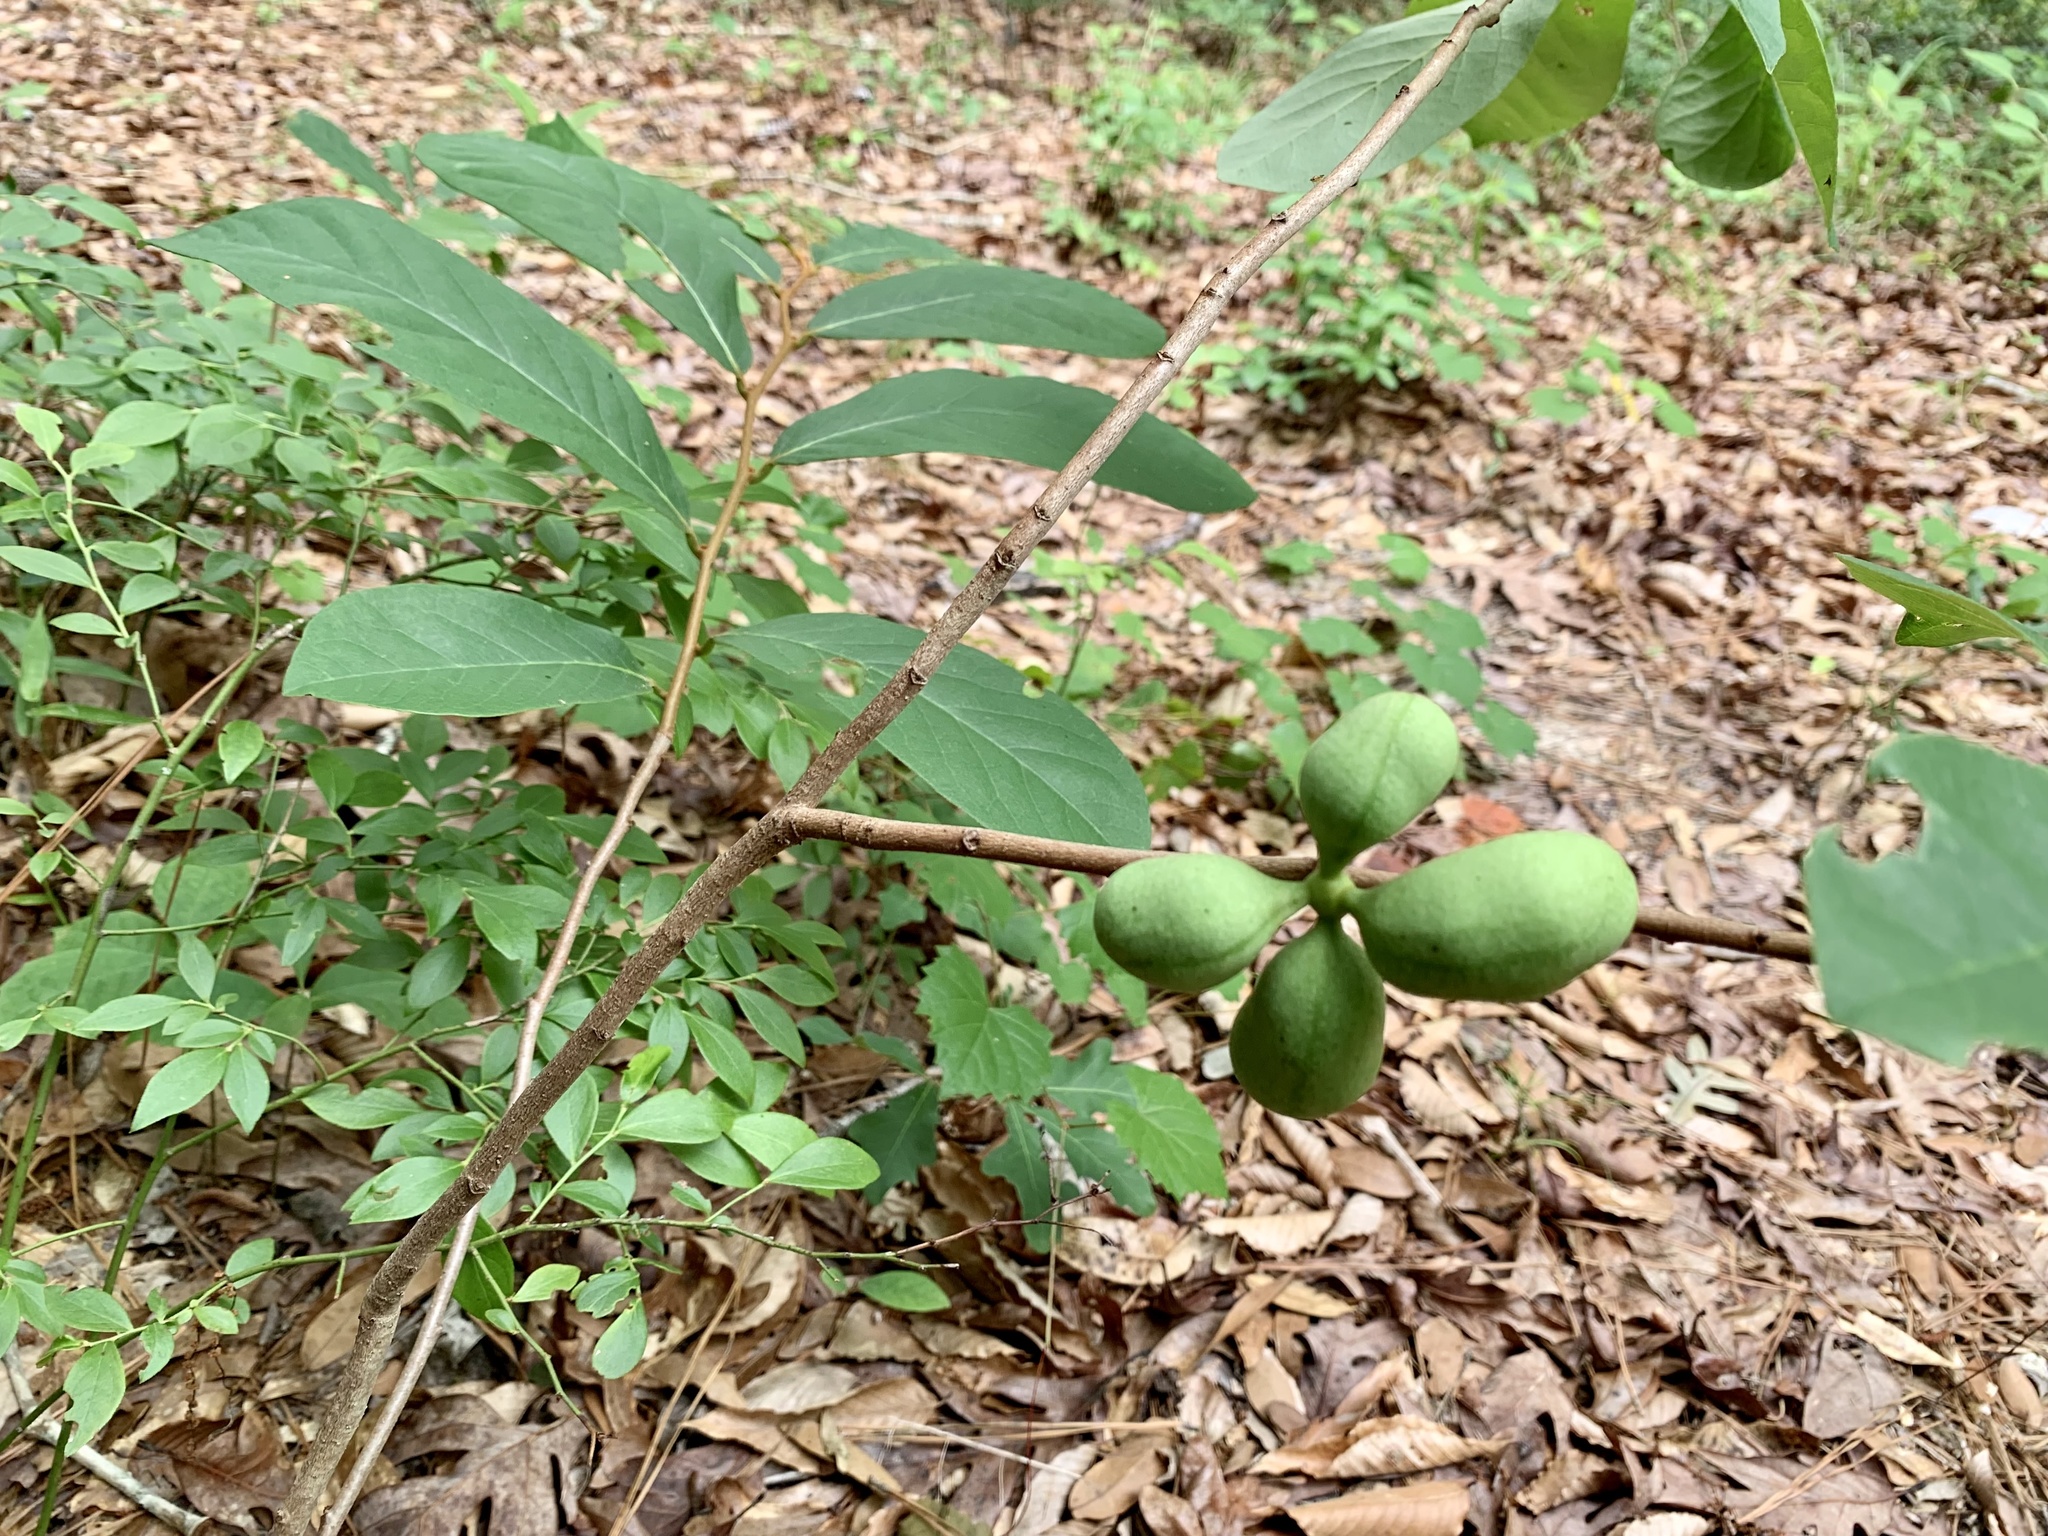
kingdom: Plantae
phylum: Tracheophyta
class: Magnoliopsida
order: Magnoliales
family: Annonaceae
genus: Asimina
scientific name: Asimina parviflora
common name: Dwarf pawpaw
